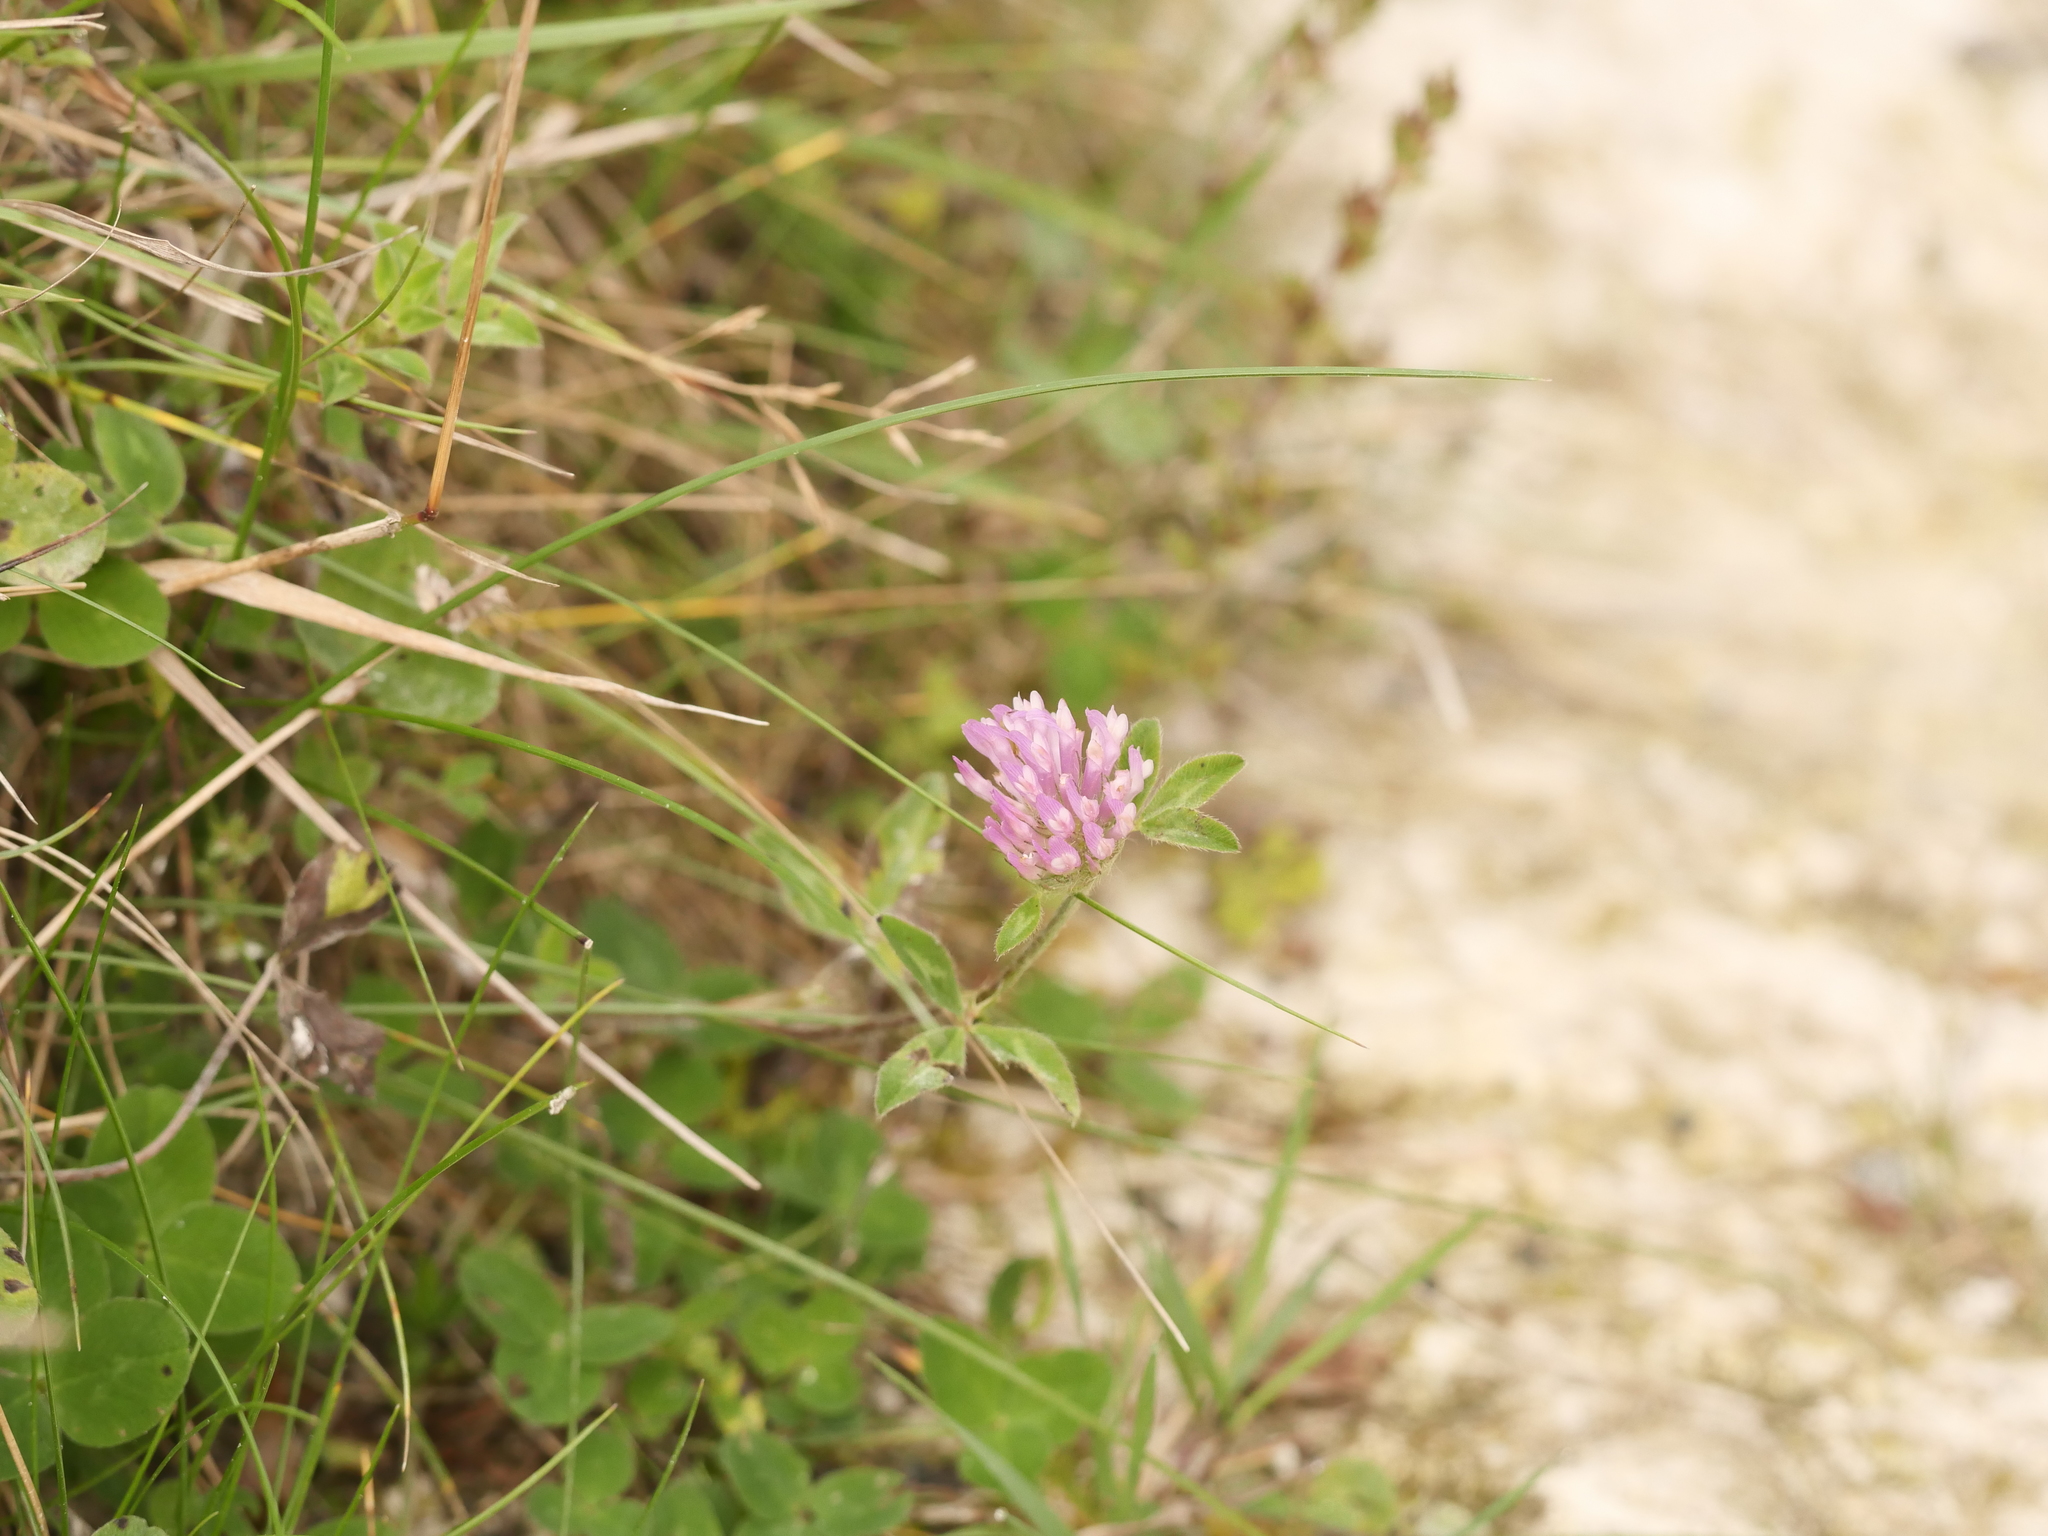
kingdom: Plantae
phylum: Tracheophyta
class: Magnoliopsida
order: Fabales
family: Fabaceae
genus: Trifolium
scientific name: Trifolium pratense
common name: Red clover
